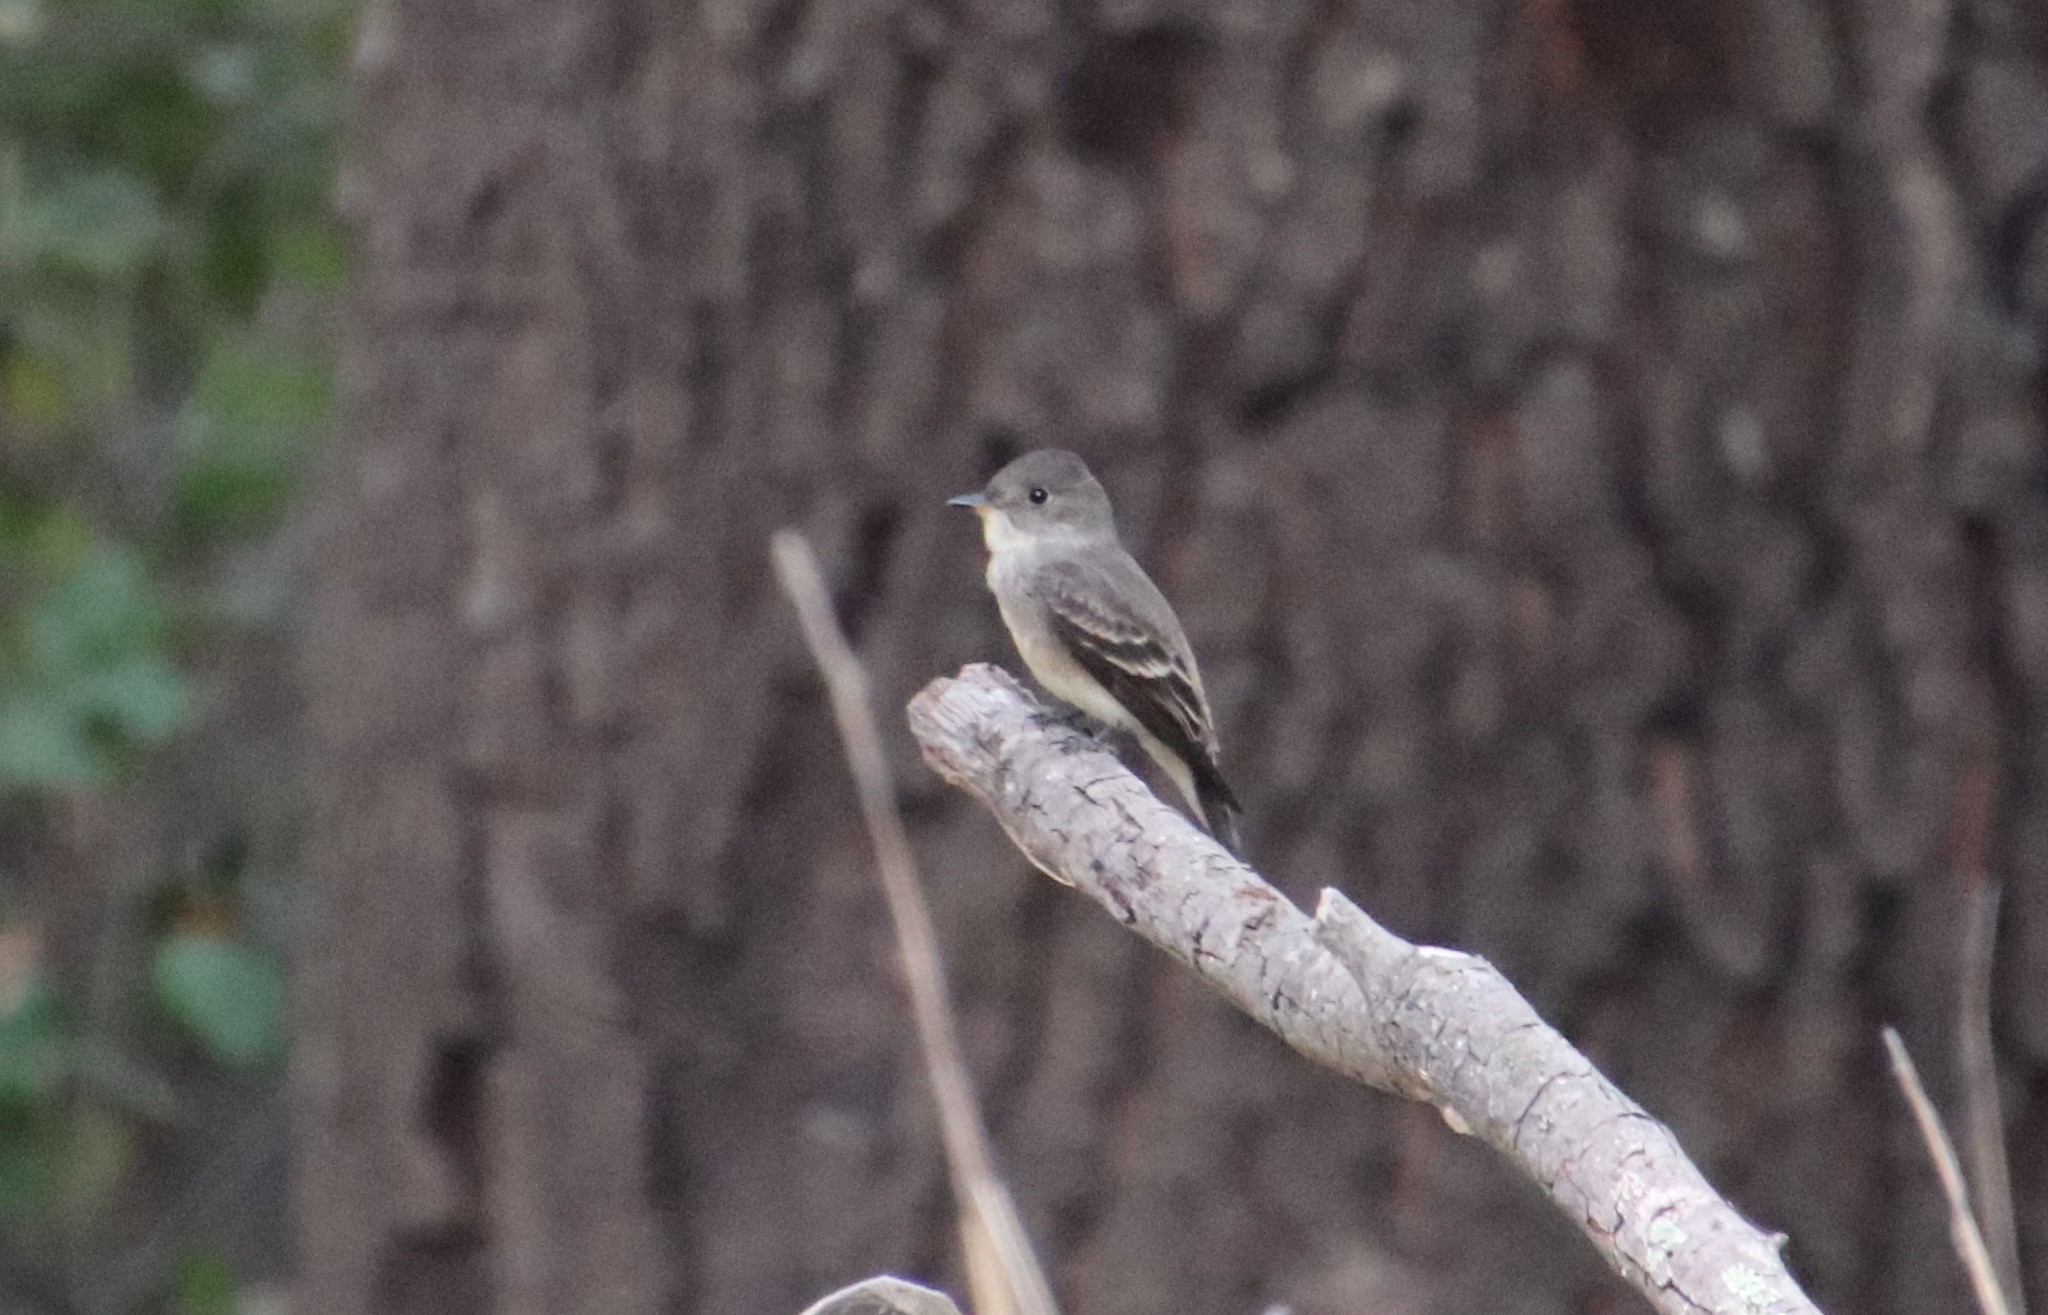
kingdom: Animalia
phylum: Chordata
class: Aves
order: Passeriformes
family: Tyrannidae
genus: Contopus
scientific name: Contopus sordidulus
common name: Western wood-pewee
